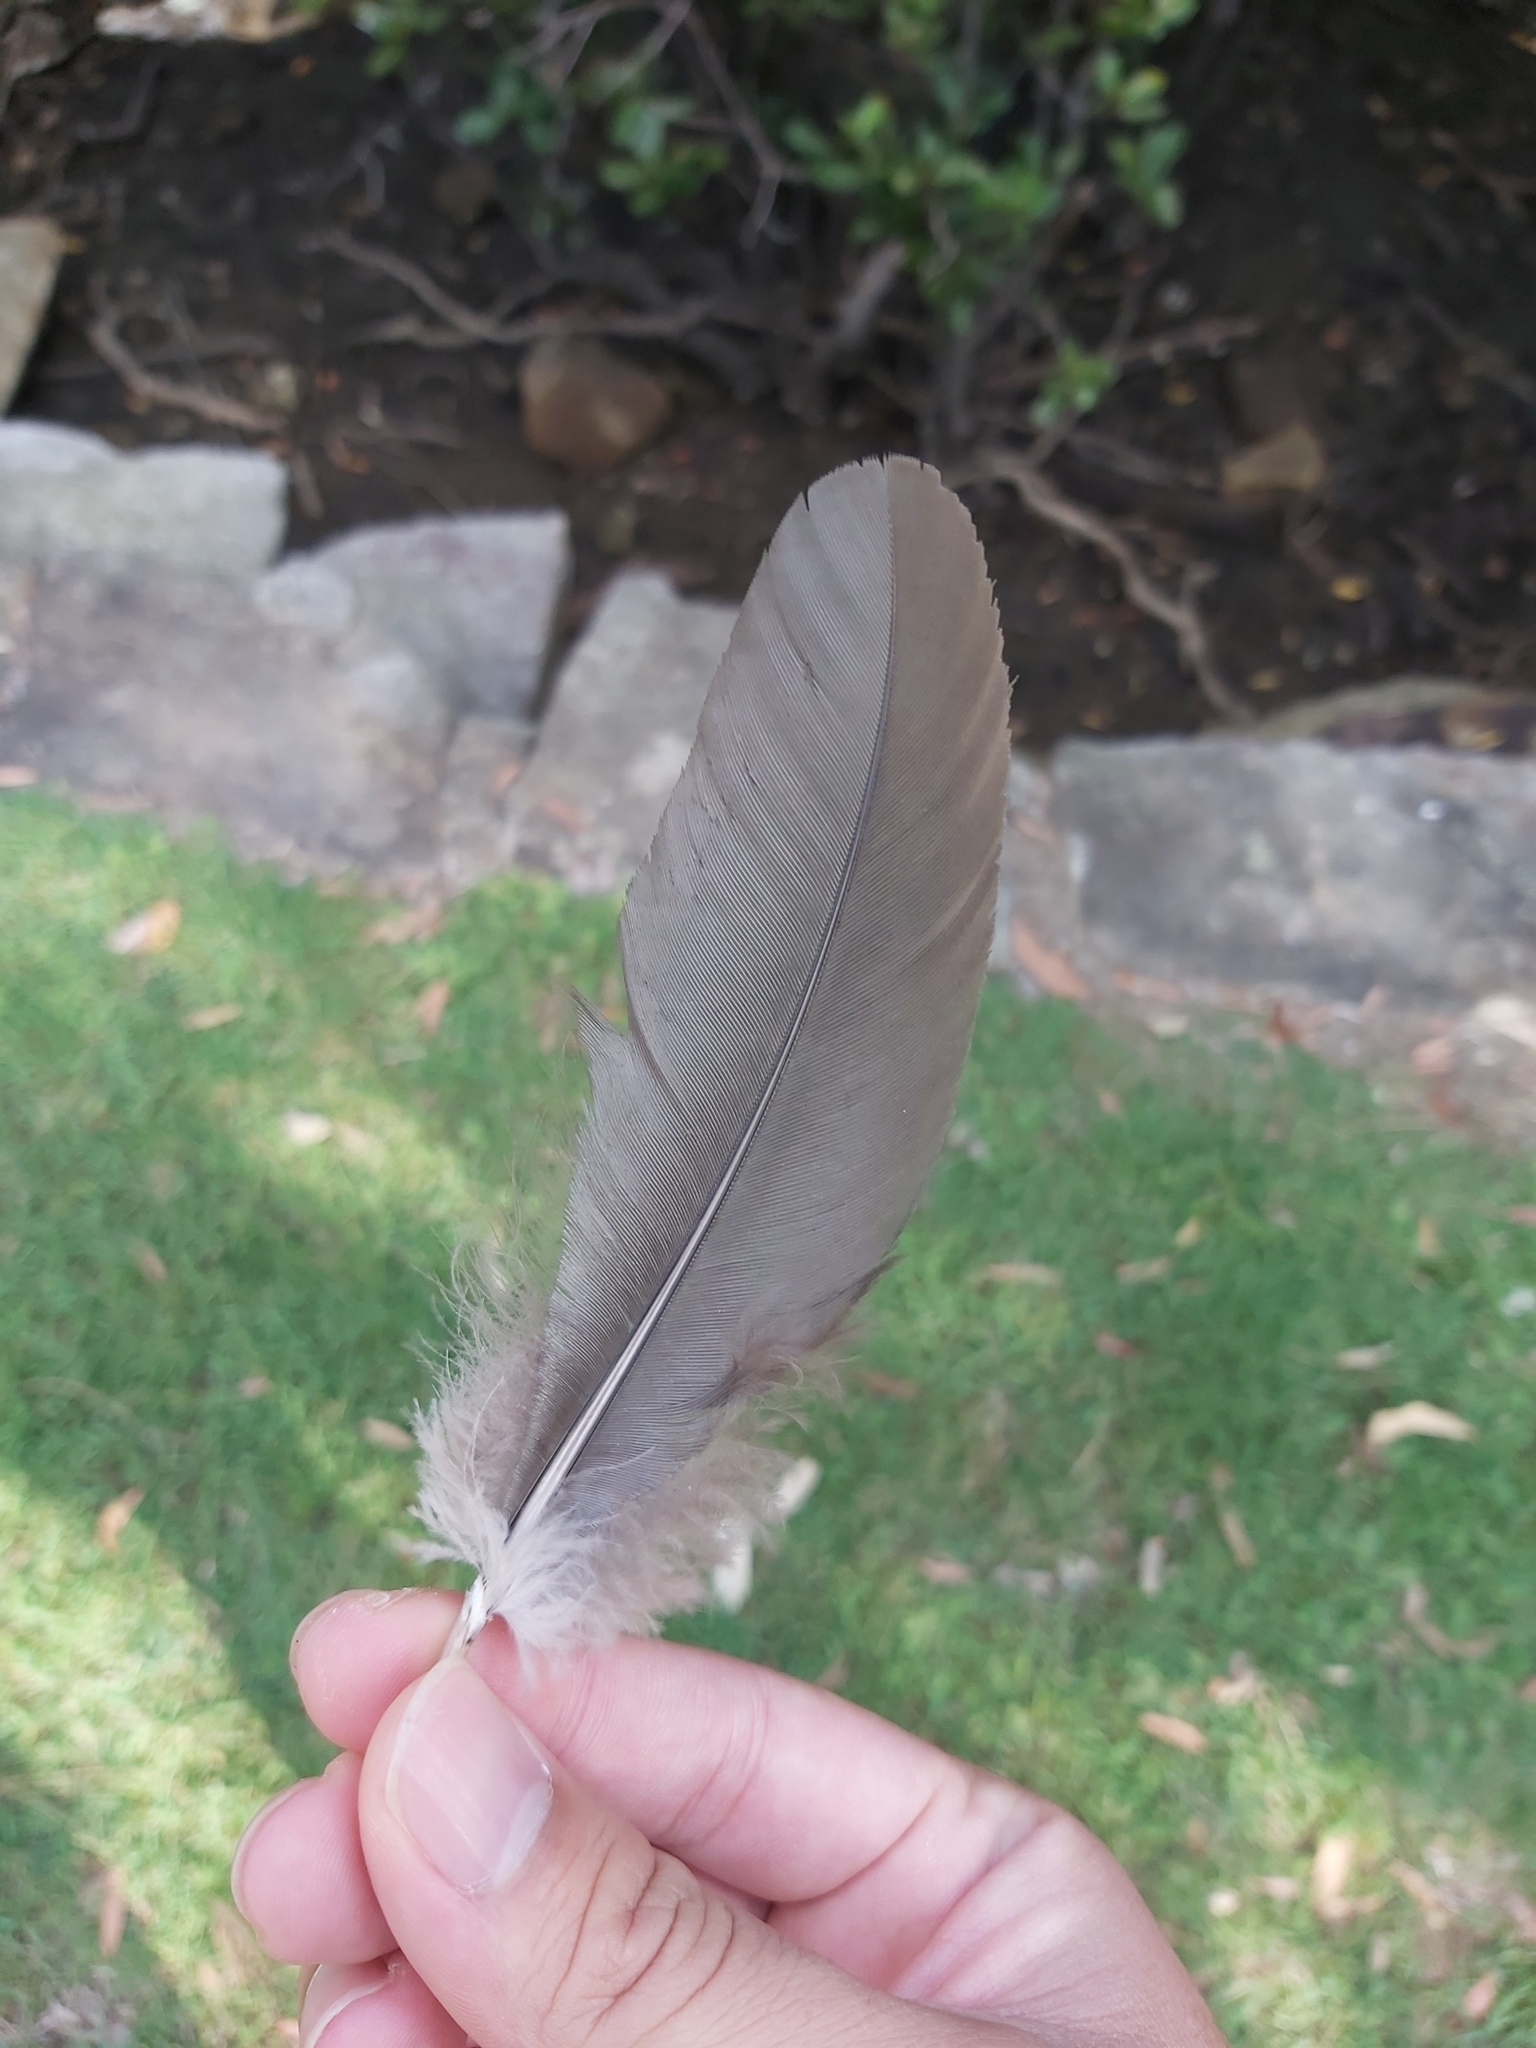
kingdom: Animalia
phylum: Chordata
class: Aves
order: Galliformes
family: Megapodiidae
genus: Alectura
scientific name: Alectura lathami
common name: Australian brushturkey
